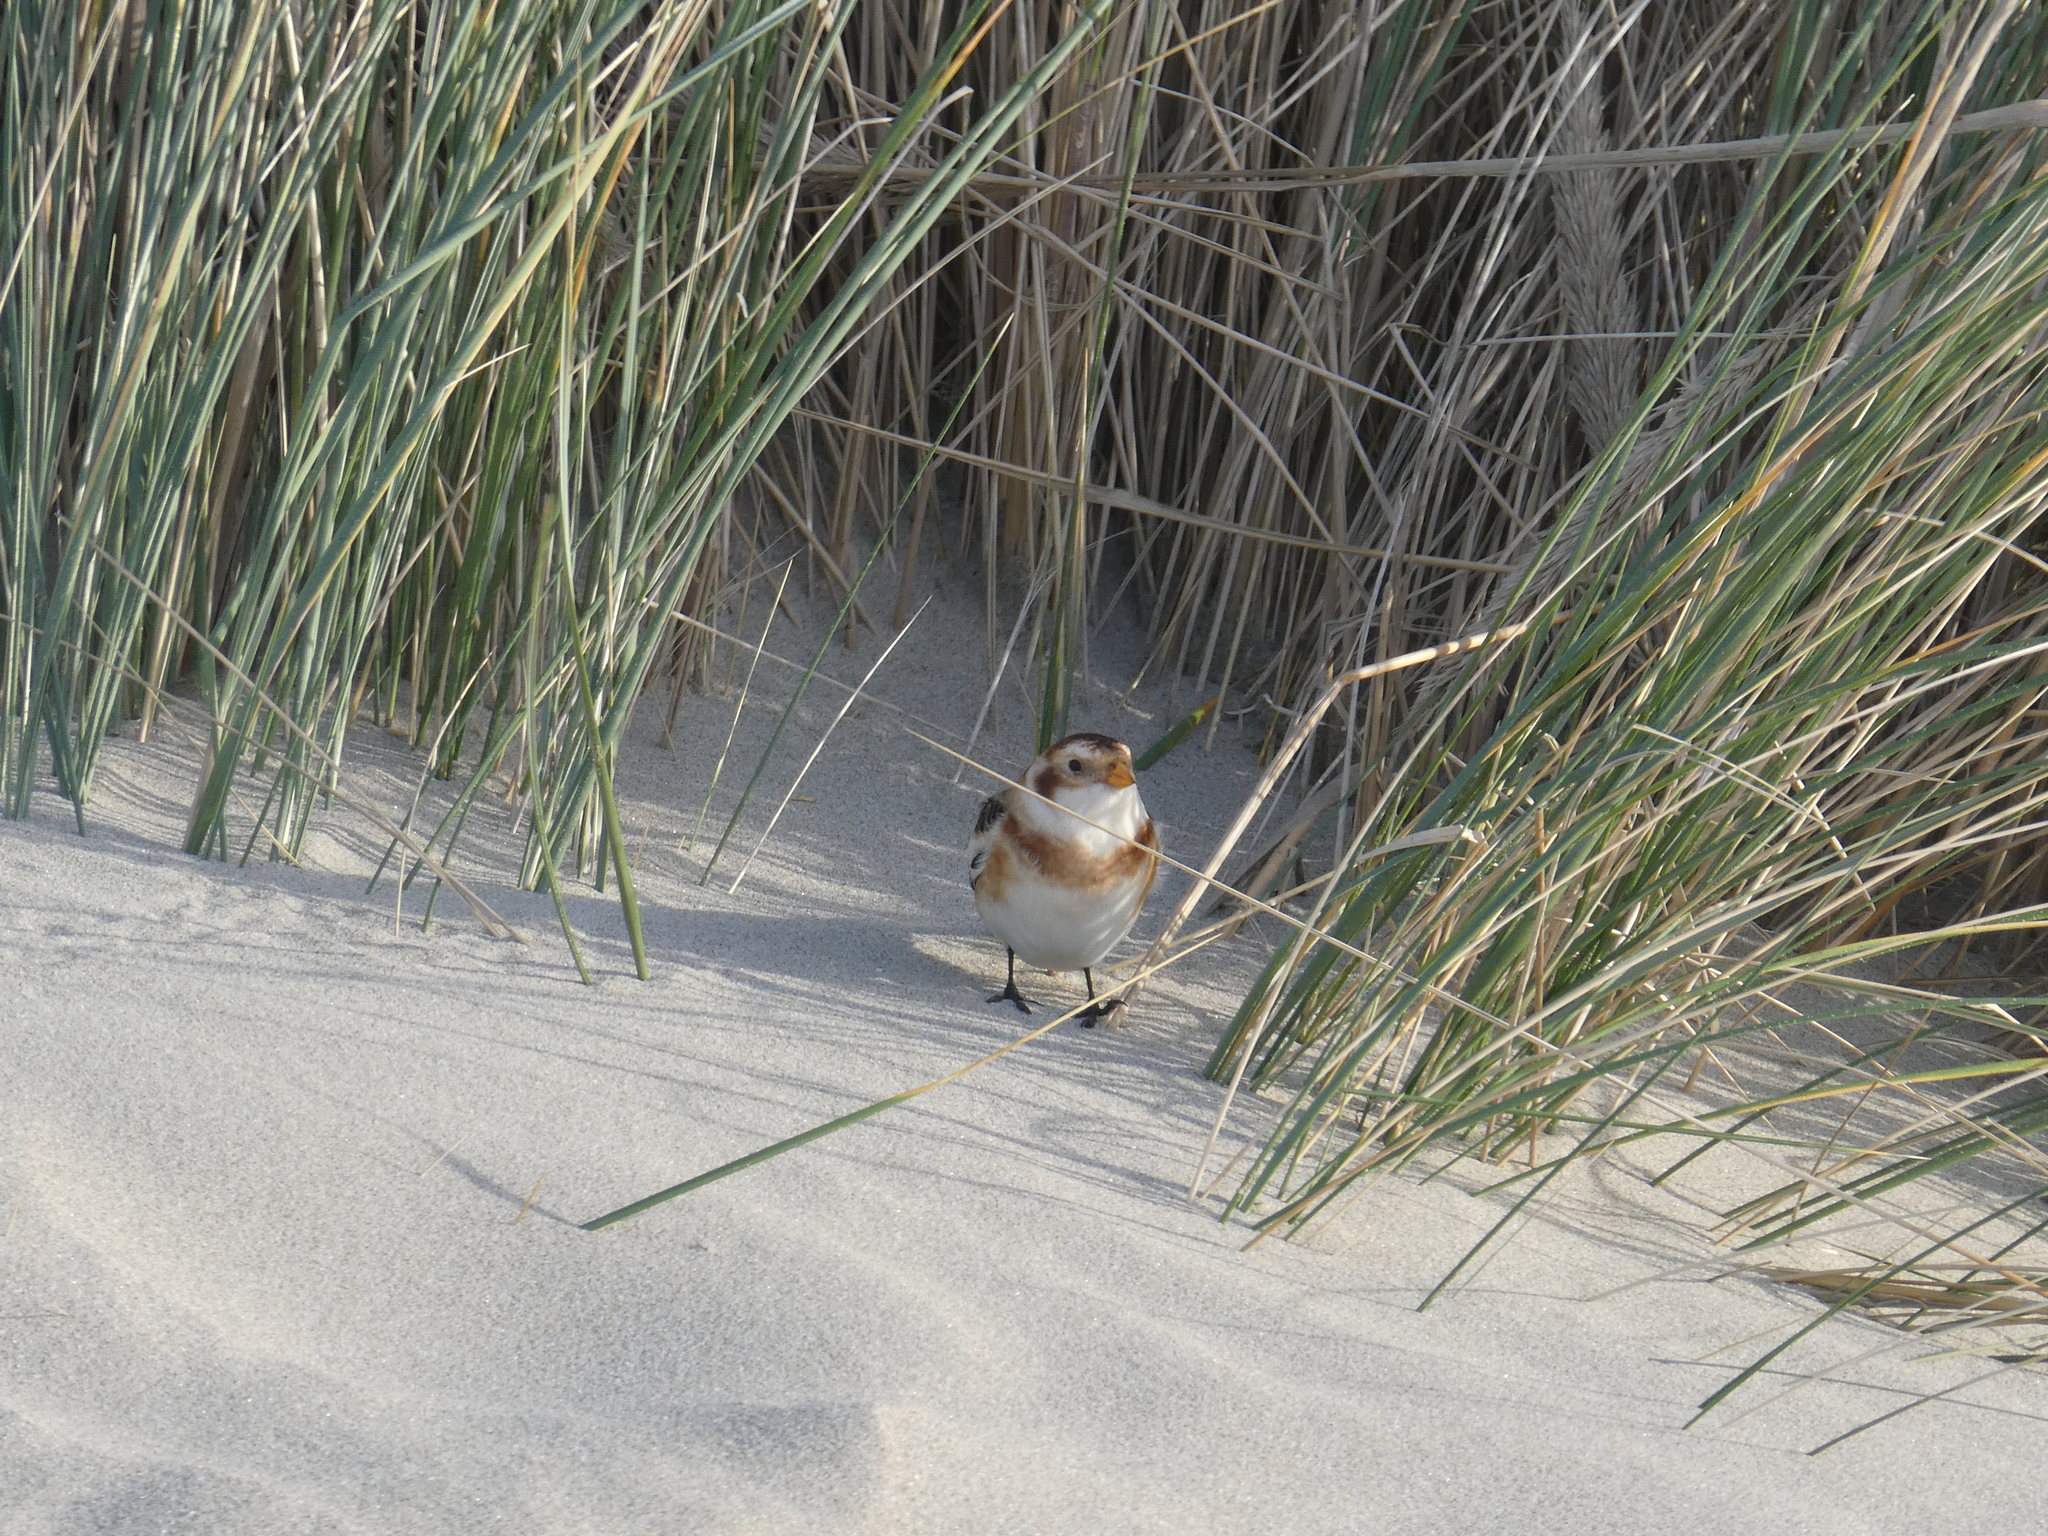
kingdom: Animalia
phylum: Chordata
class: Aves
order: Passeriformes
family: Calcariidae
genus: Plectrophenax
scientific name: Plectrophenax nivalis
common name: Snow bunting
